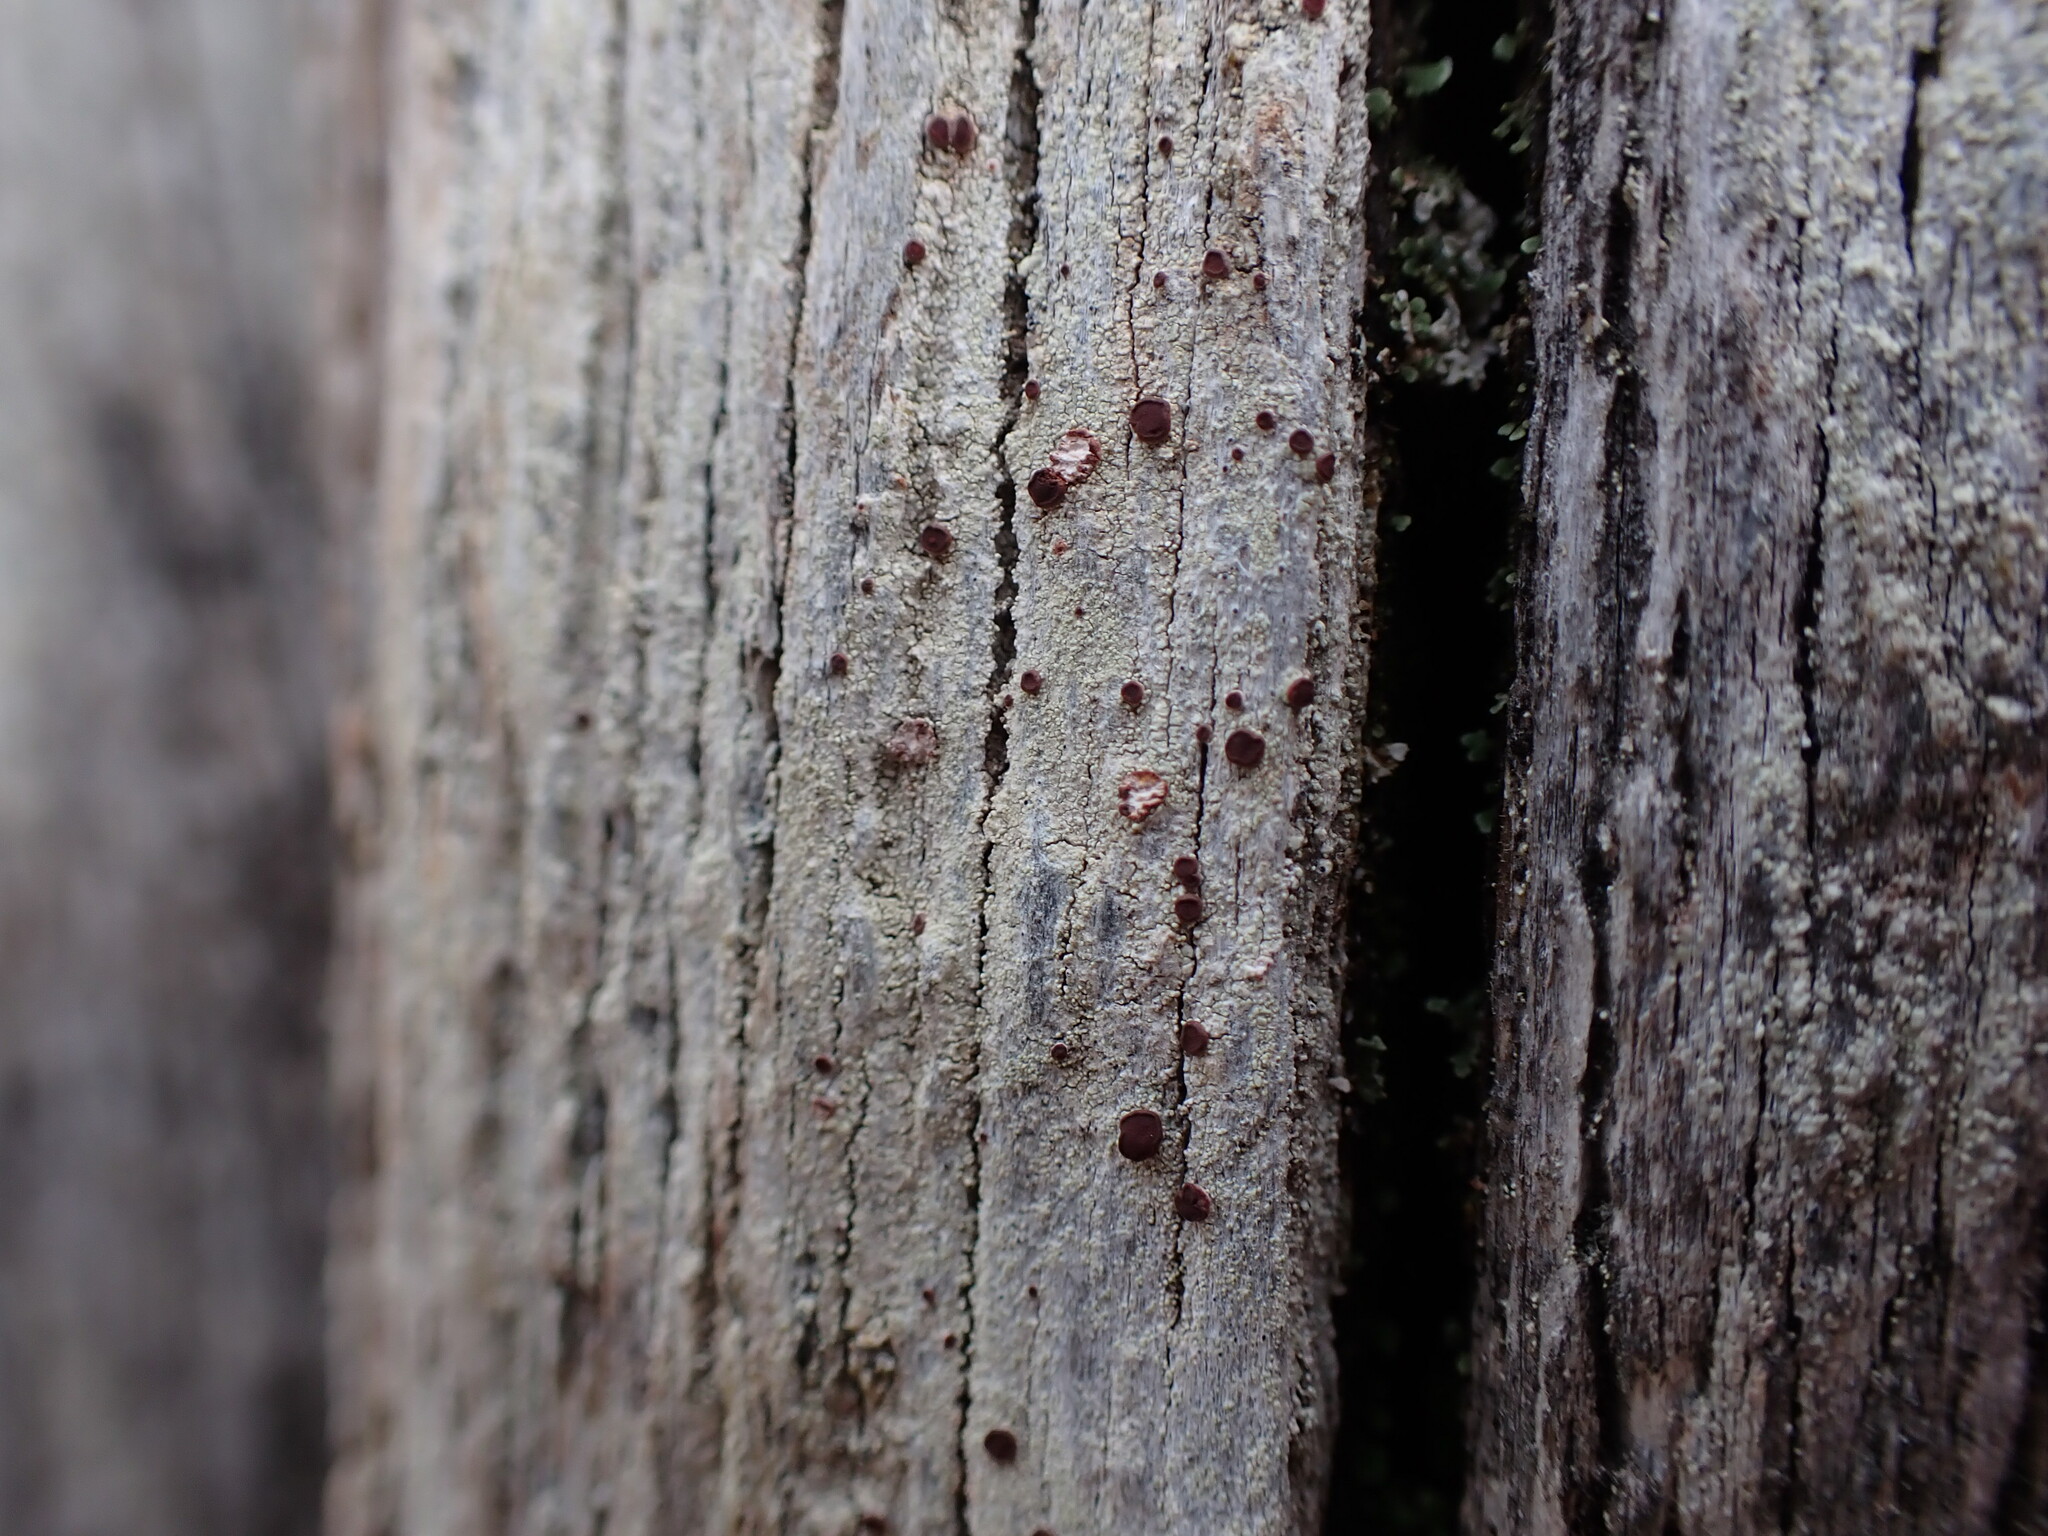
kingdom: Fungi
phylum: Ascomycota
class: Lecanoromycetes
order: Lecanorales
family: Ramalinaceae
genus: Bilimbia
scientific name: Bilimbia rubricosa
